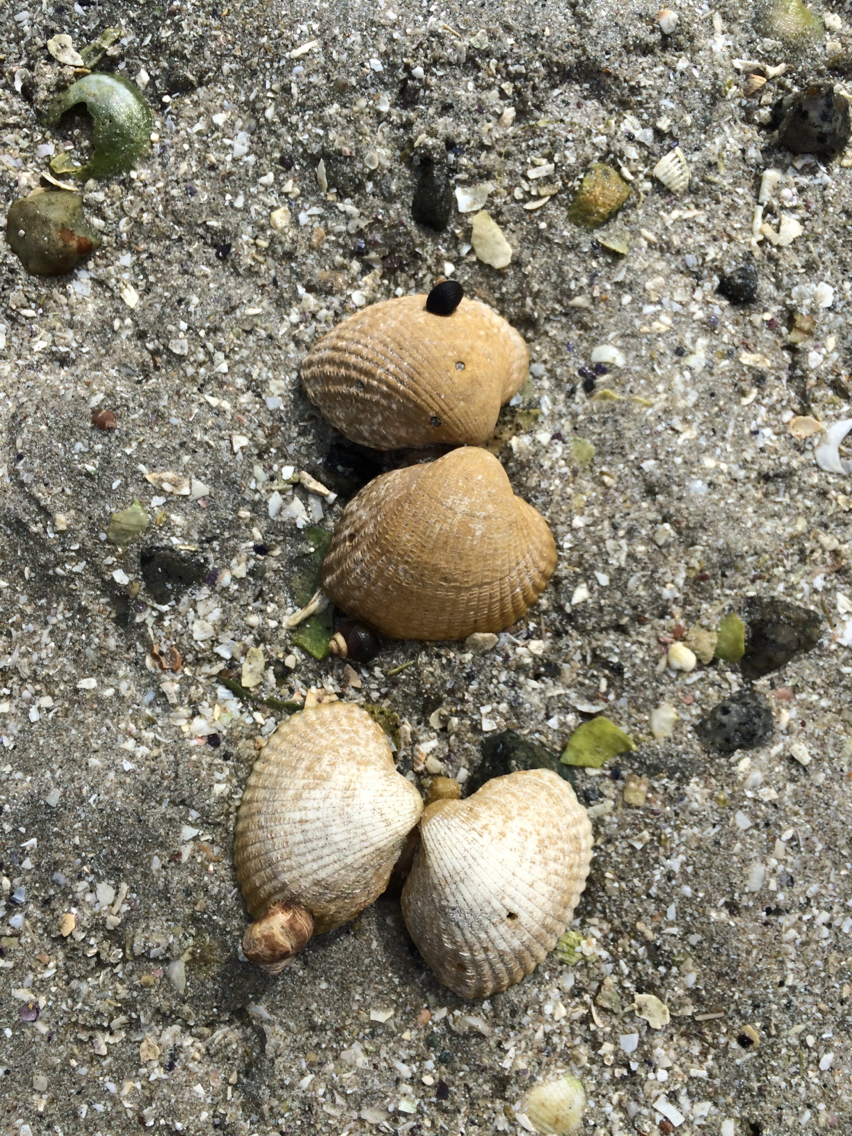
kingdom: Animalia
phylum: Mollusca
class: Bivalvia
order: Cardiida
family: Cardiidae
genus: Cerastoderma
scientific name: Cerastoderma edule
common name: Common cockle
